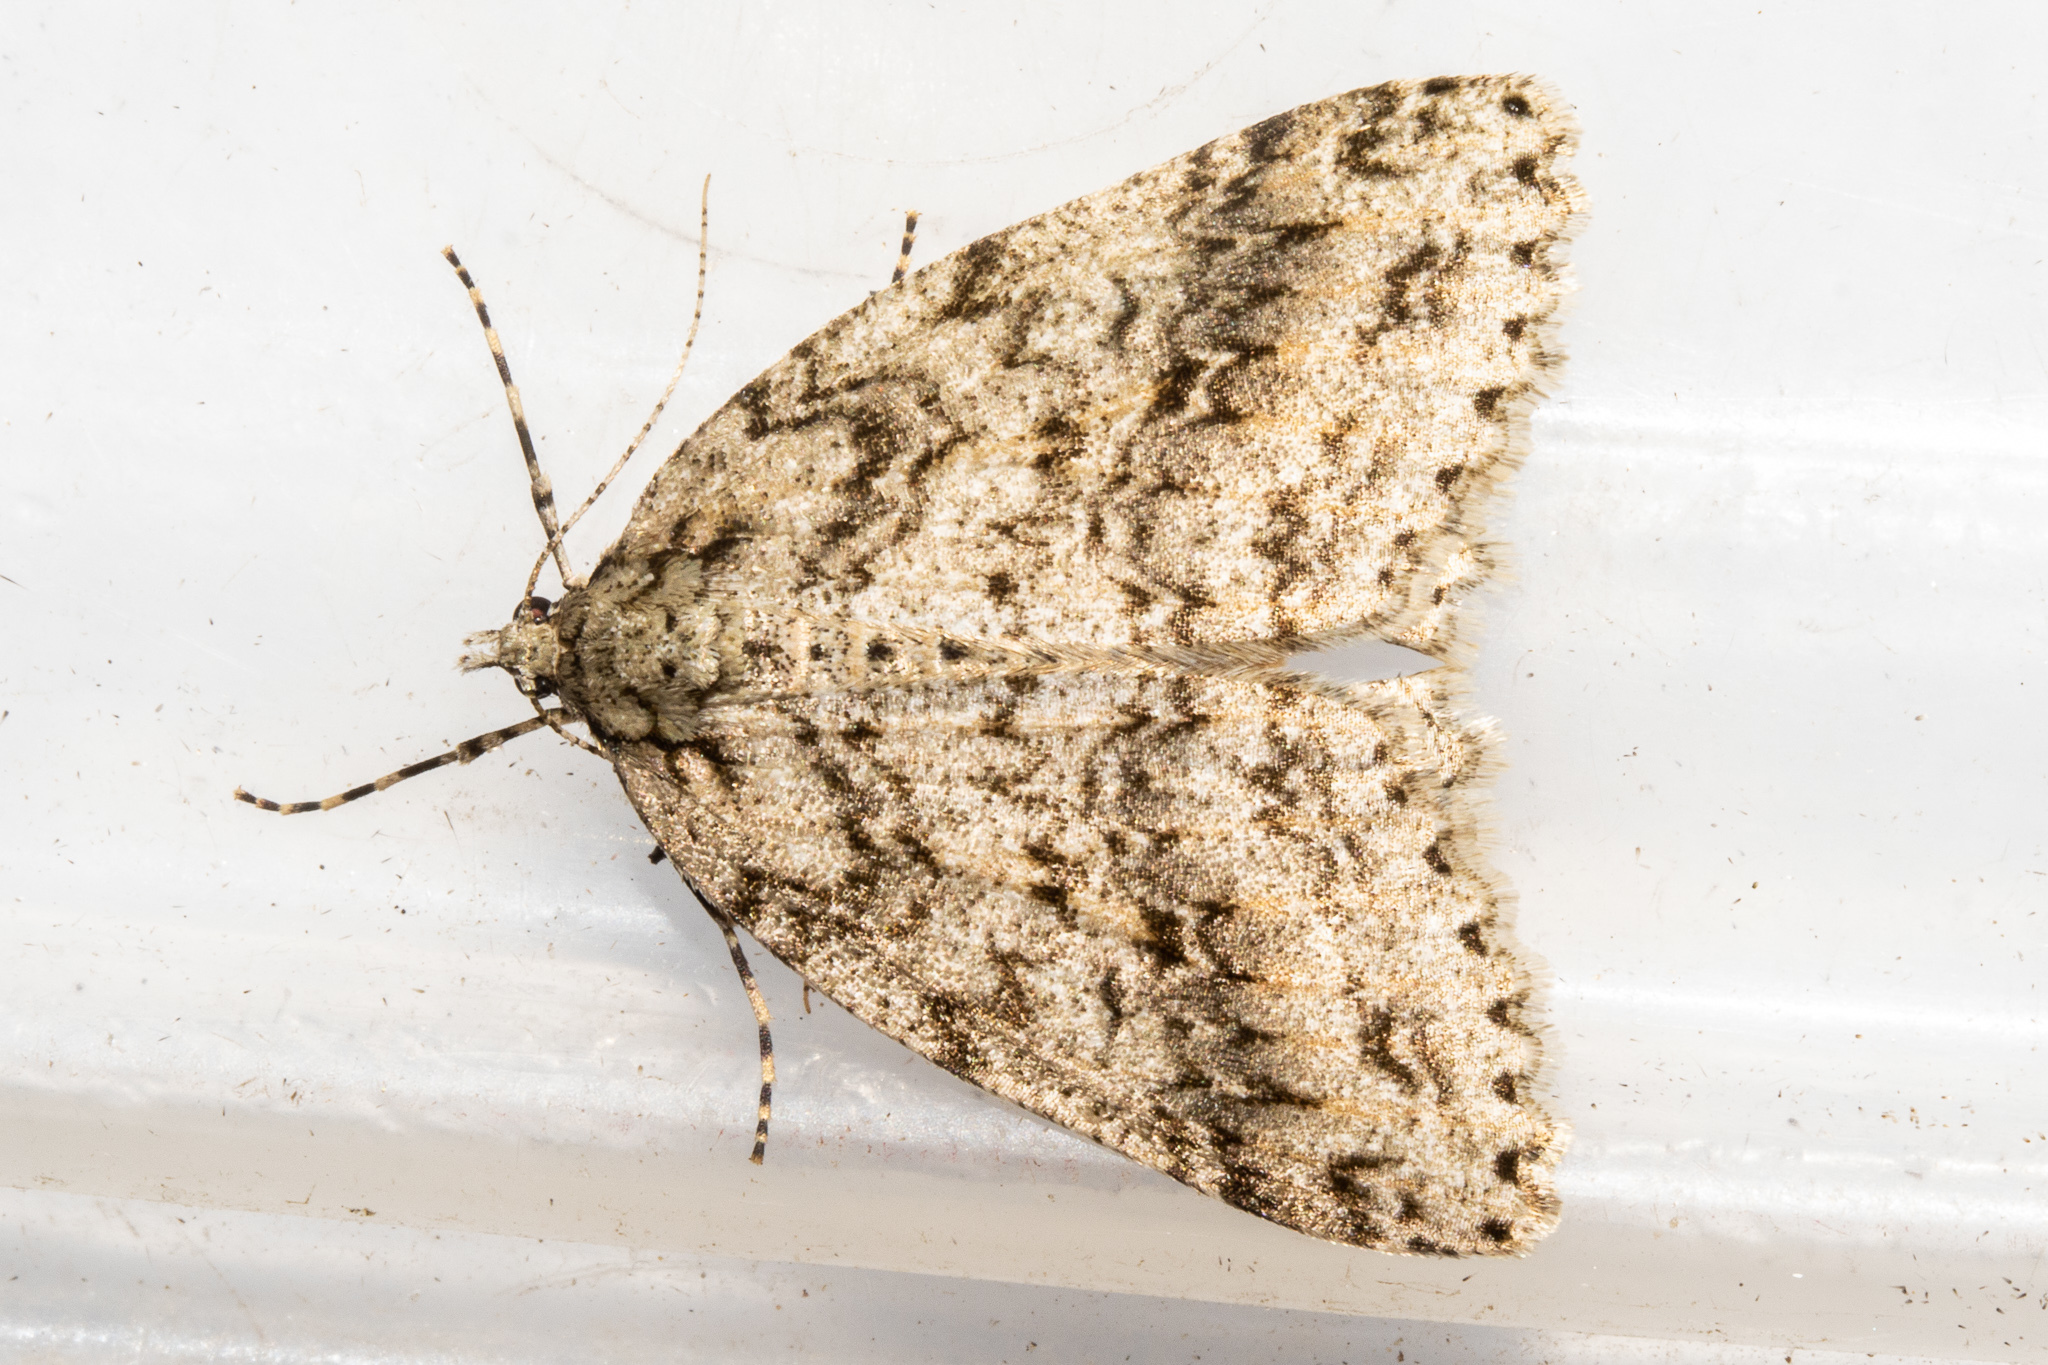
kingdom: Animalia
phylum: Arthropoda
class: Insecta
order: Lepidoptera
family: Geometridae
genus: Pseudocoremia
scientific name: Pseudocoremia rudisata
